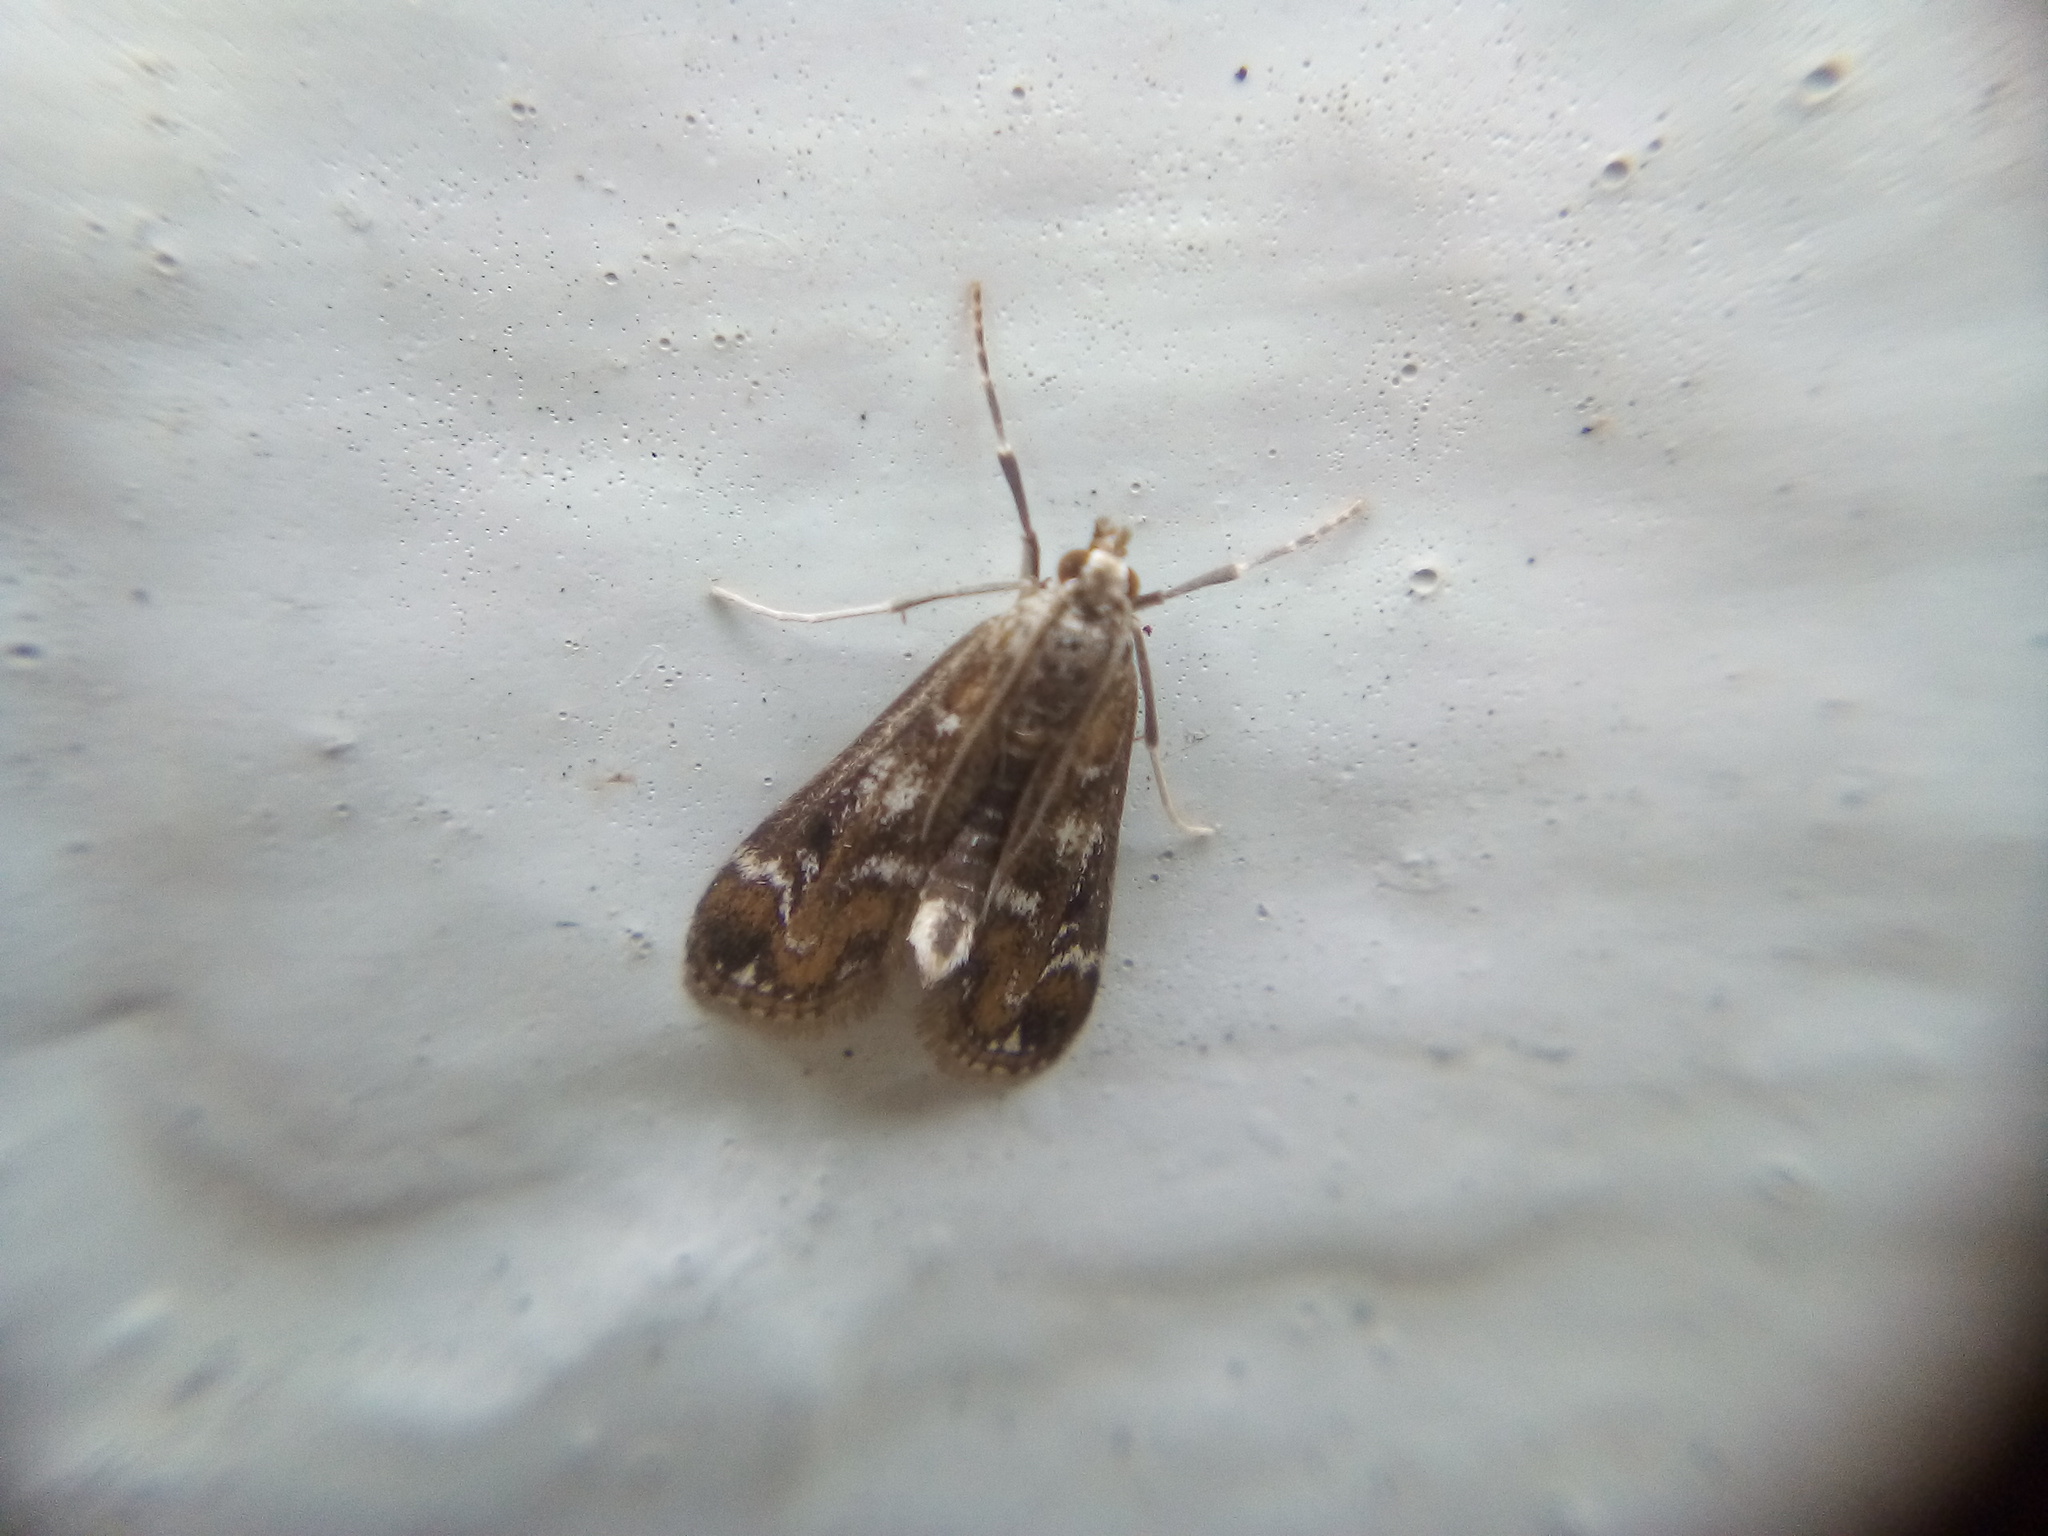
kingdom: Animalia
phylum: Arthropoda
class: Insecta
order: Lepidoptera
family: Crambidae
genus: Hygraula
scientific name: Hygraula nitens
